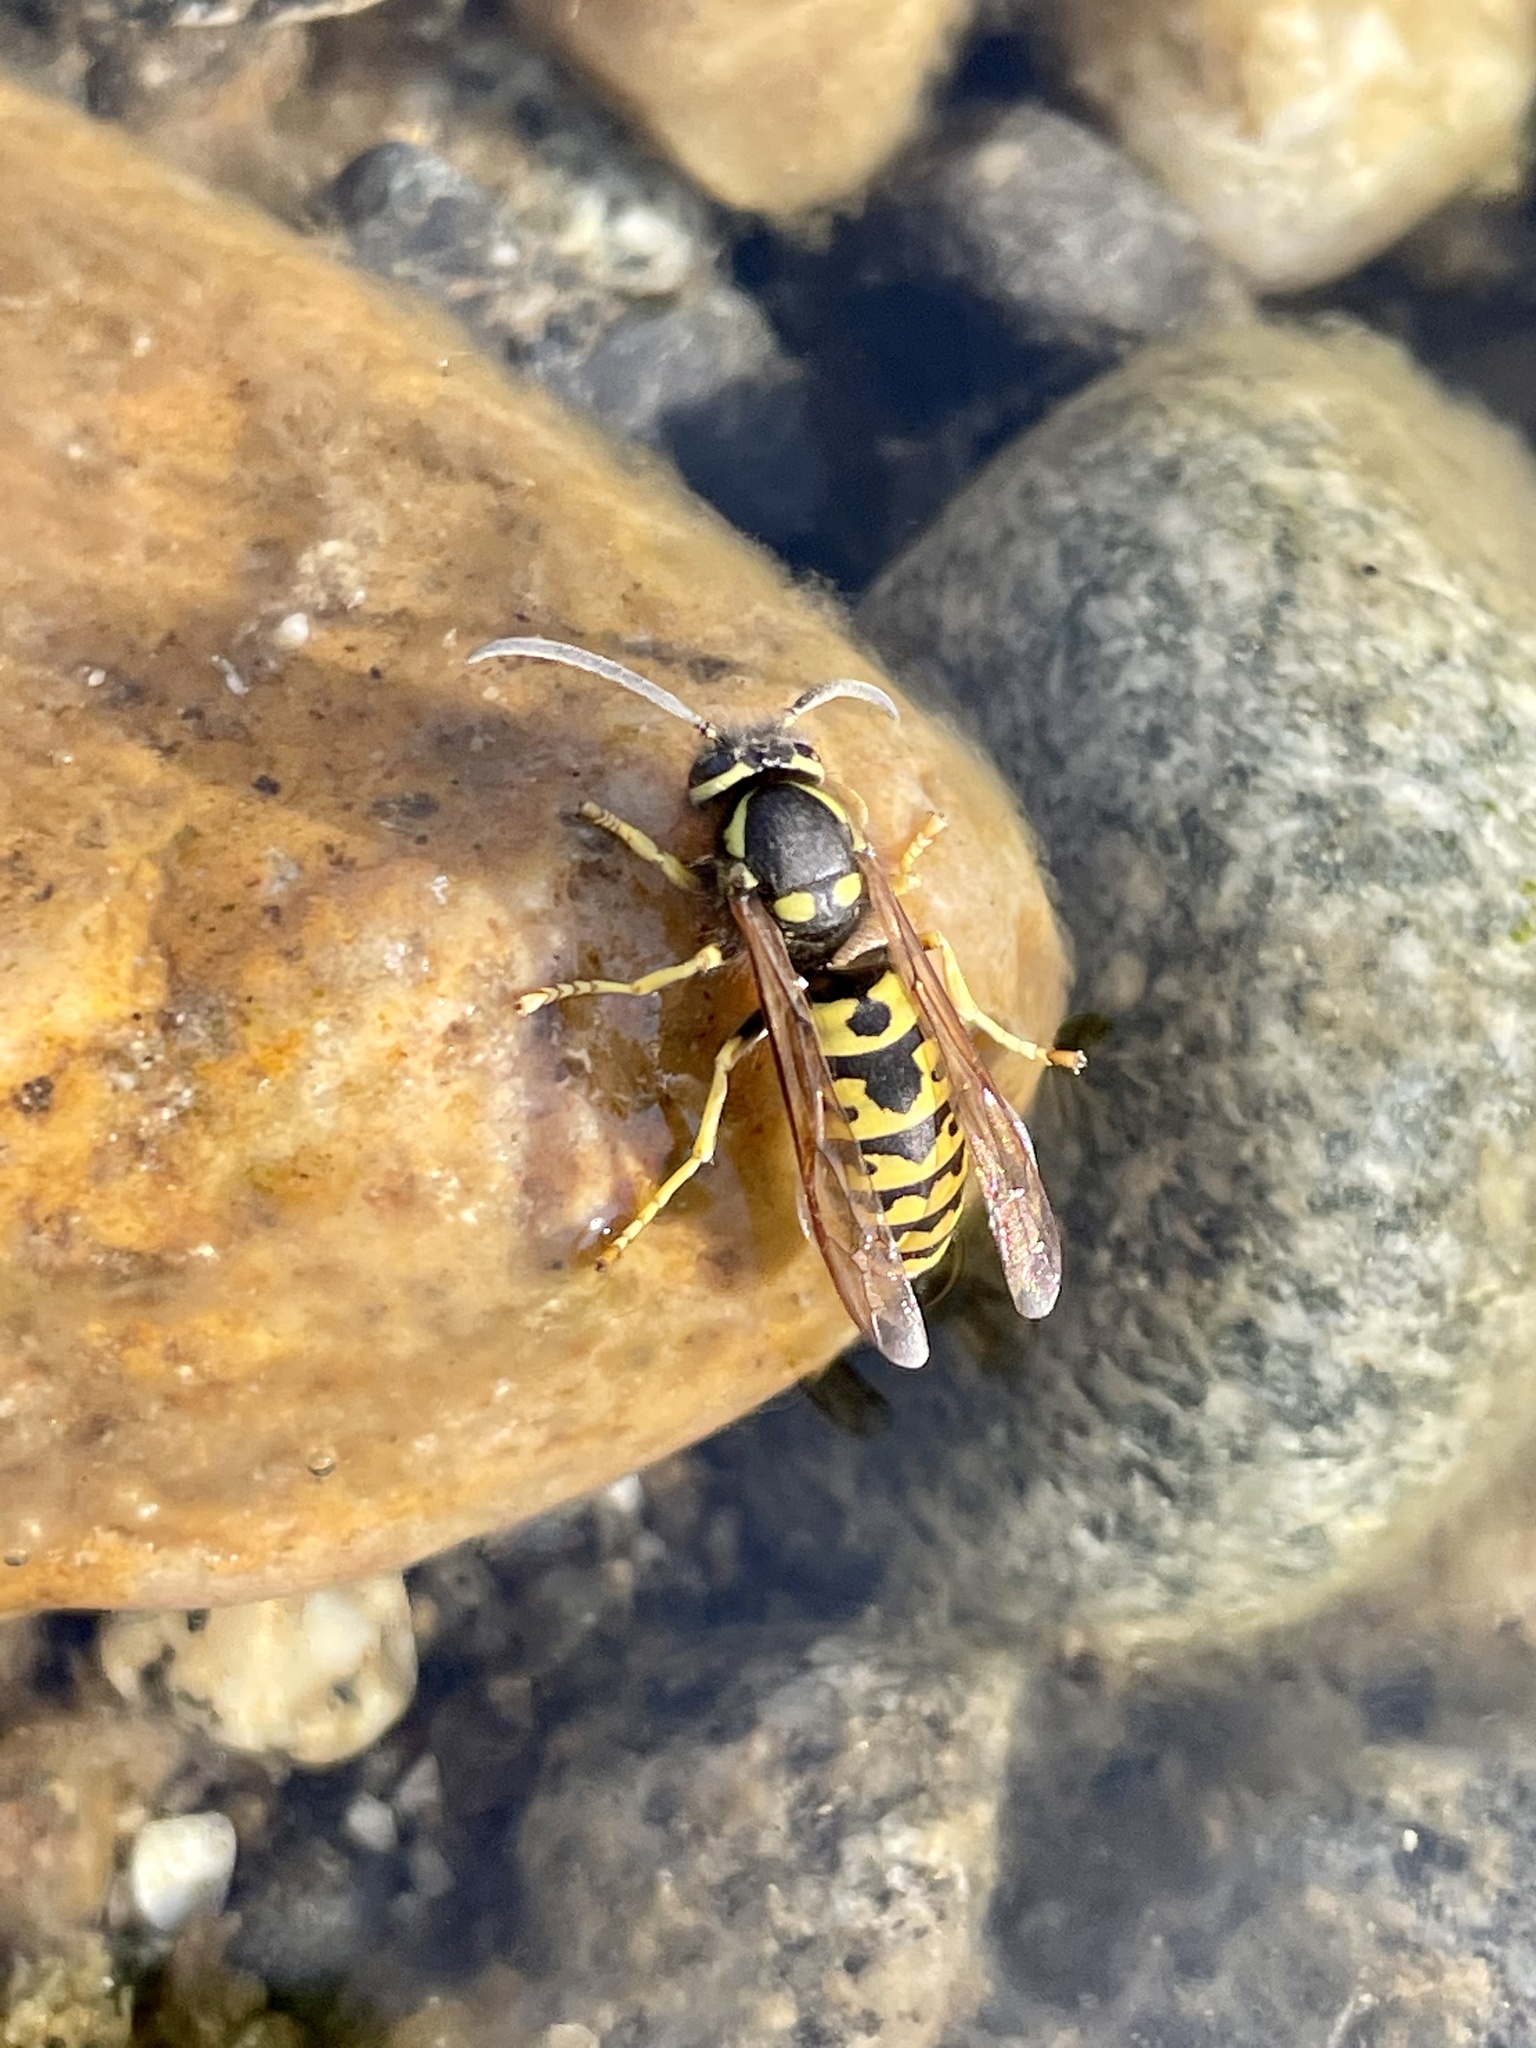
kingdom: Animalia
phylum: Arthropoda
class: Insecta
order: Hymenoptera
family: Vespidae
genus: Vespula
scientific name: Vespula atropilosa
